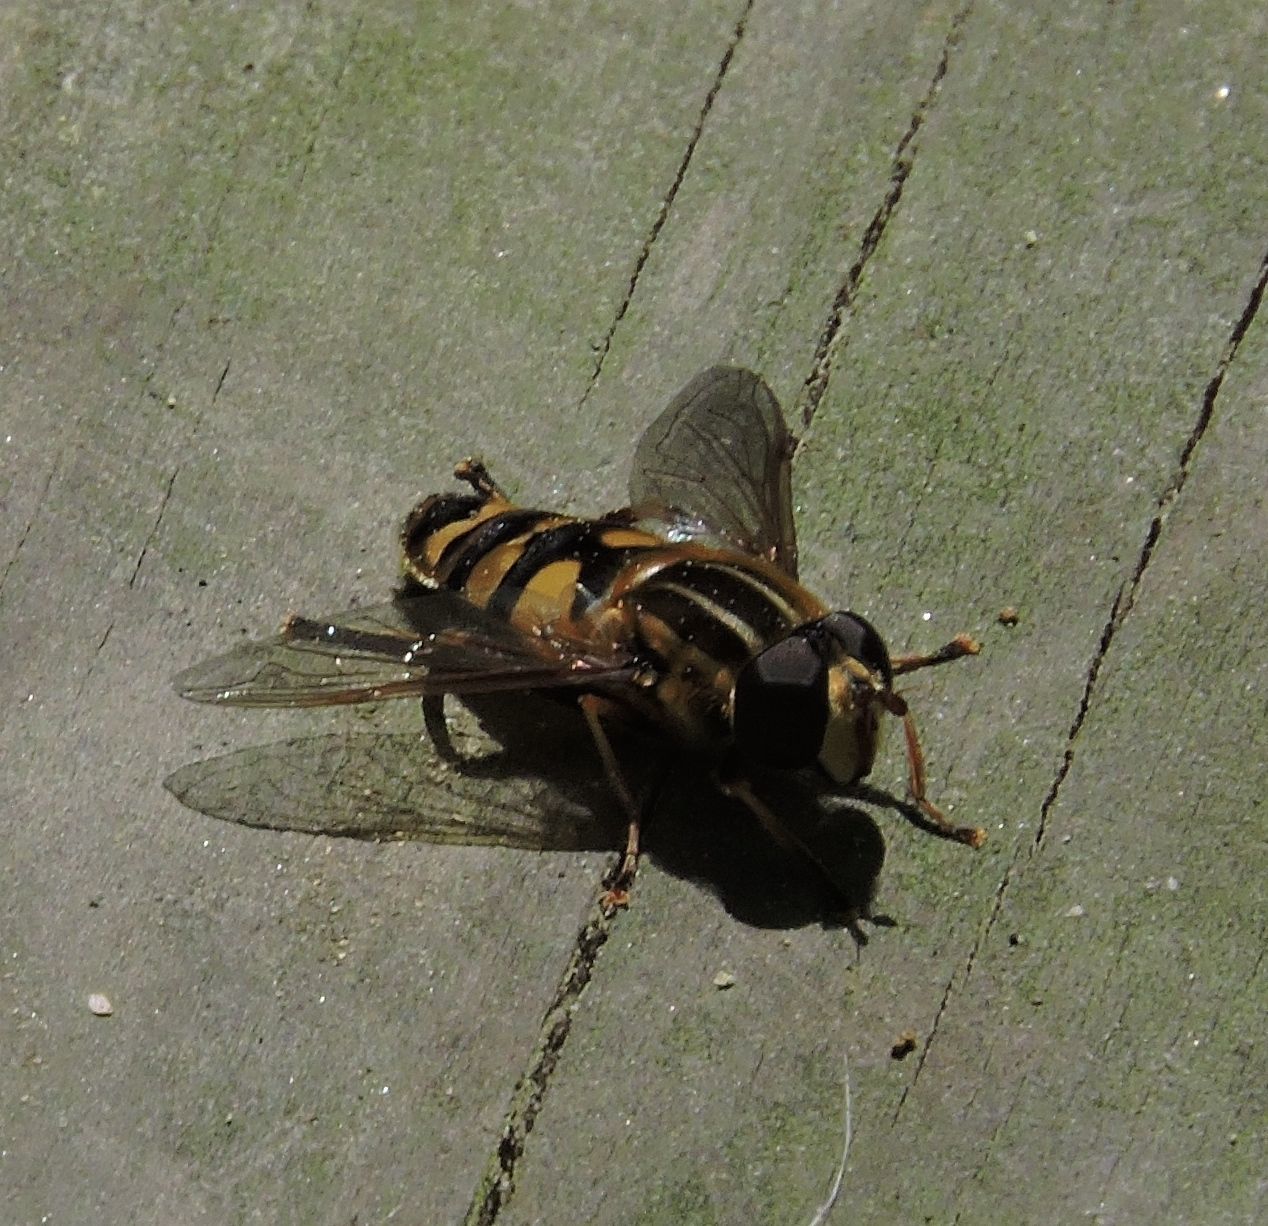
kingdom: Animalia
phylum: Arthropoda
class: Insecta
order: Diptera
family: Syrphidae
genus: Helophilus
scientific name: Helophilus fasciatus
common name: Narrow-headed marsh fly
